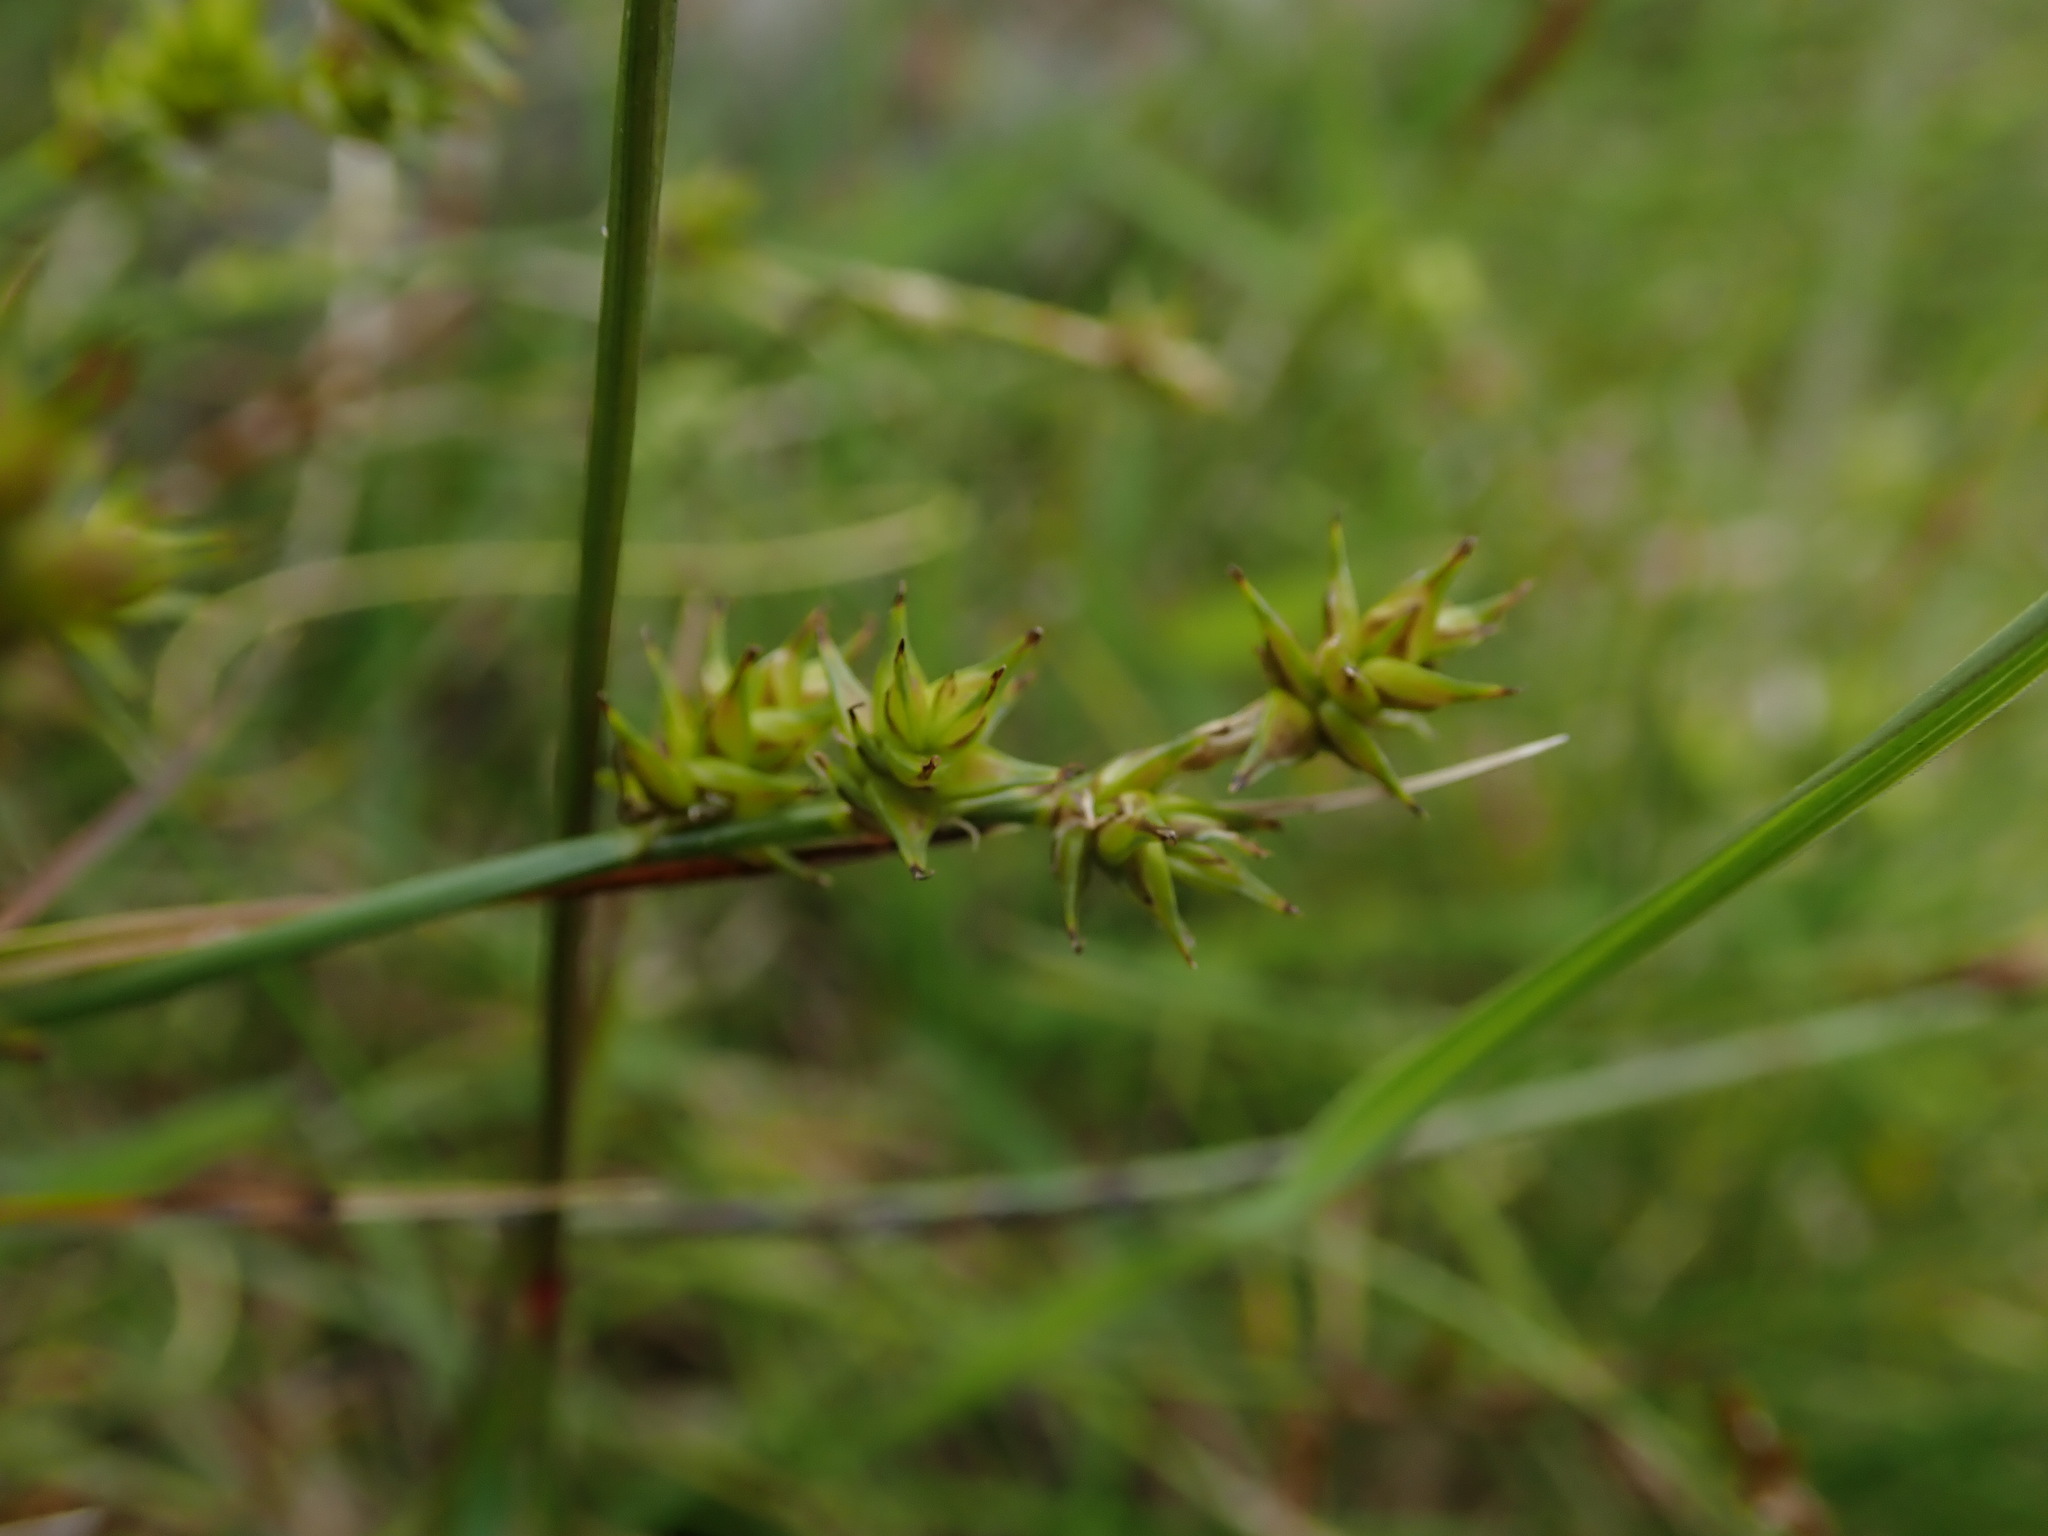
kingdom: Plantae
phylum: Tracheophyta
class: Liliopsida
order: Poales
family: Cyperaceae
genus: Carex
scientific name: Carex echinata
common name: Star sedge
